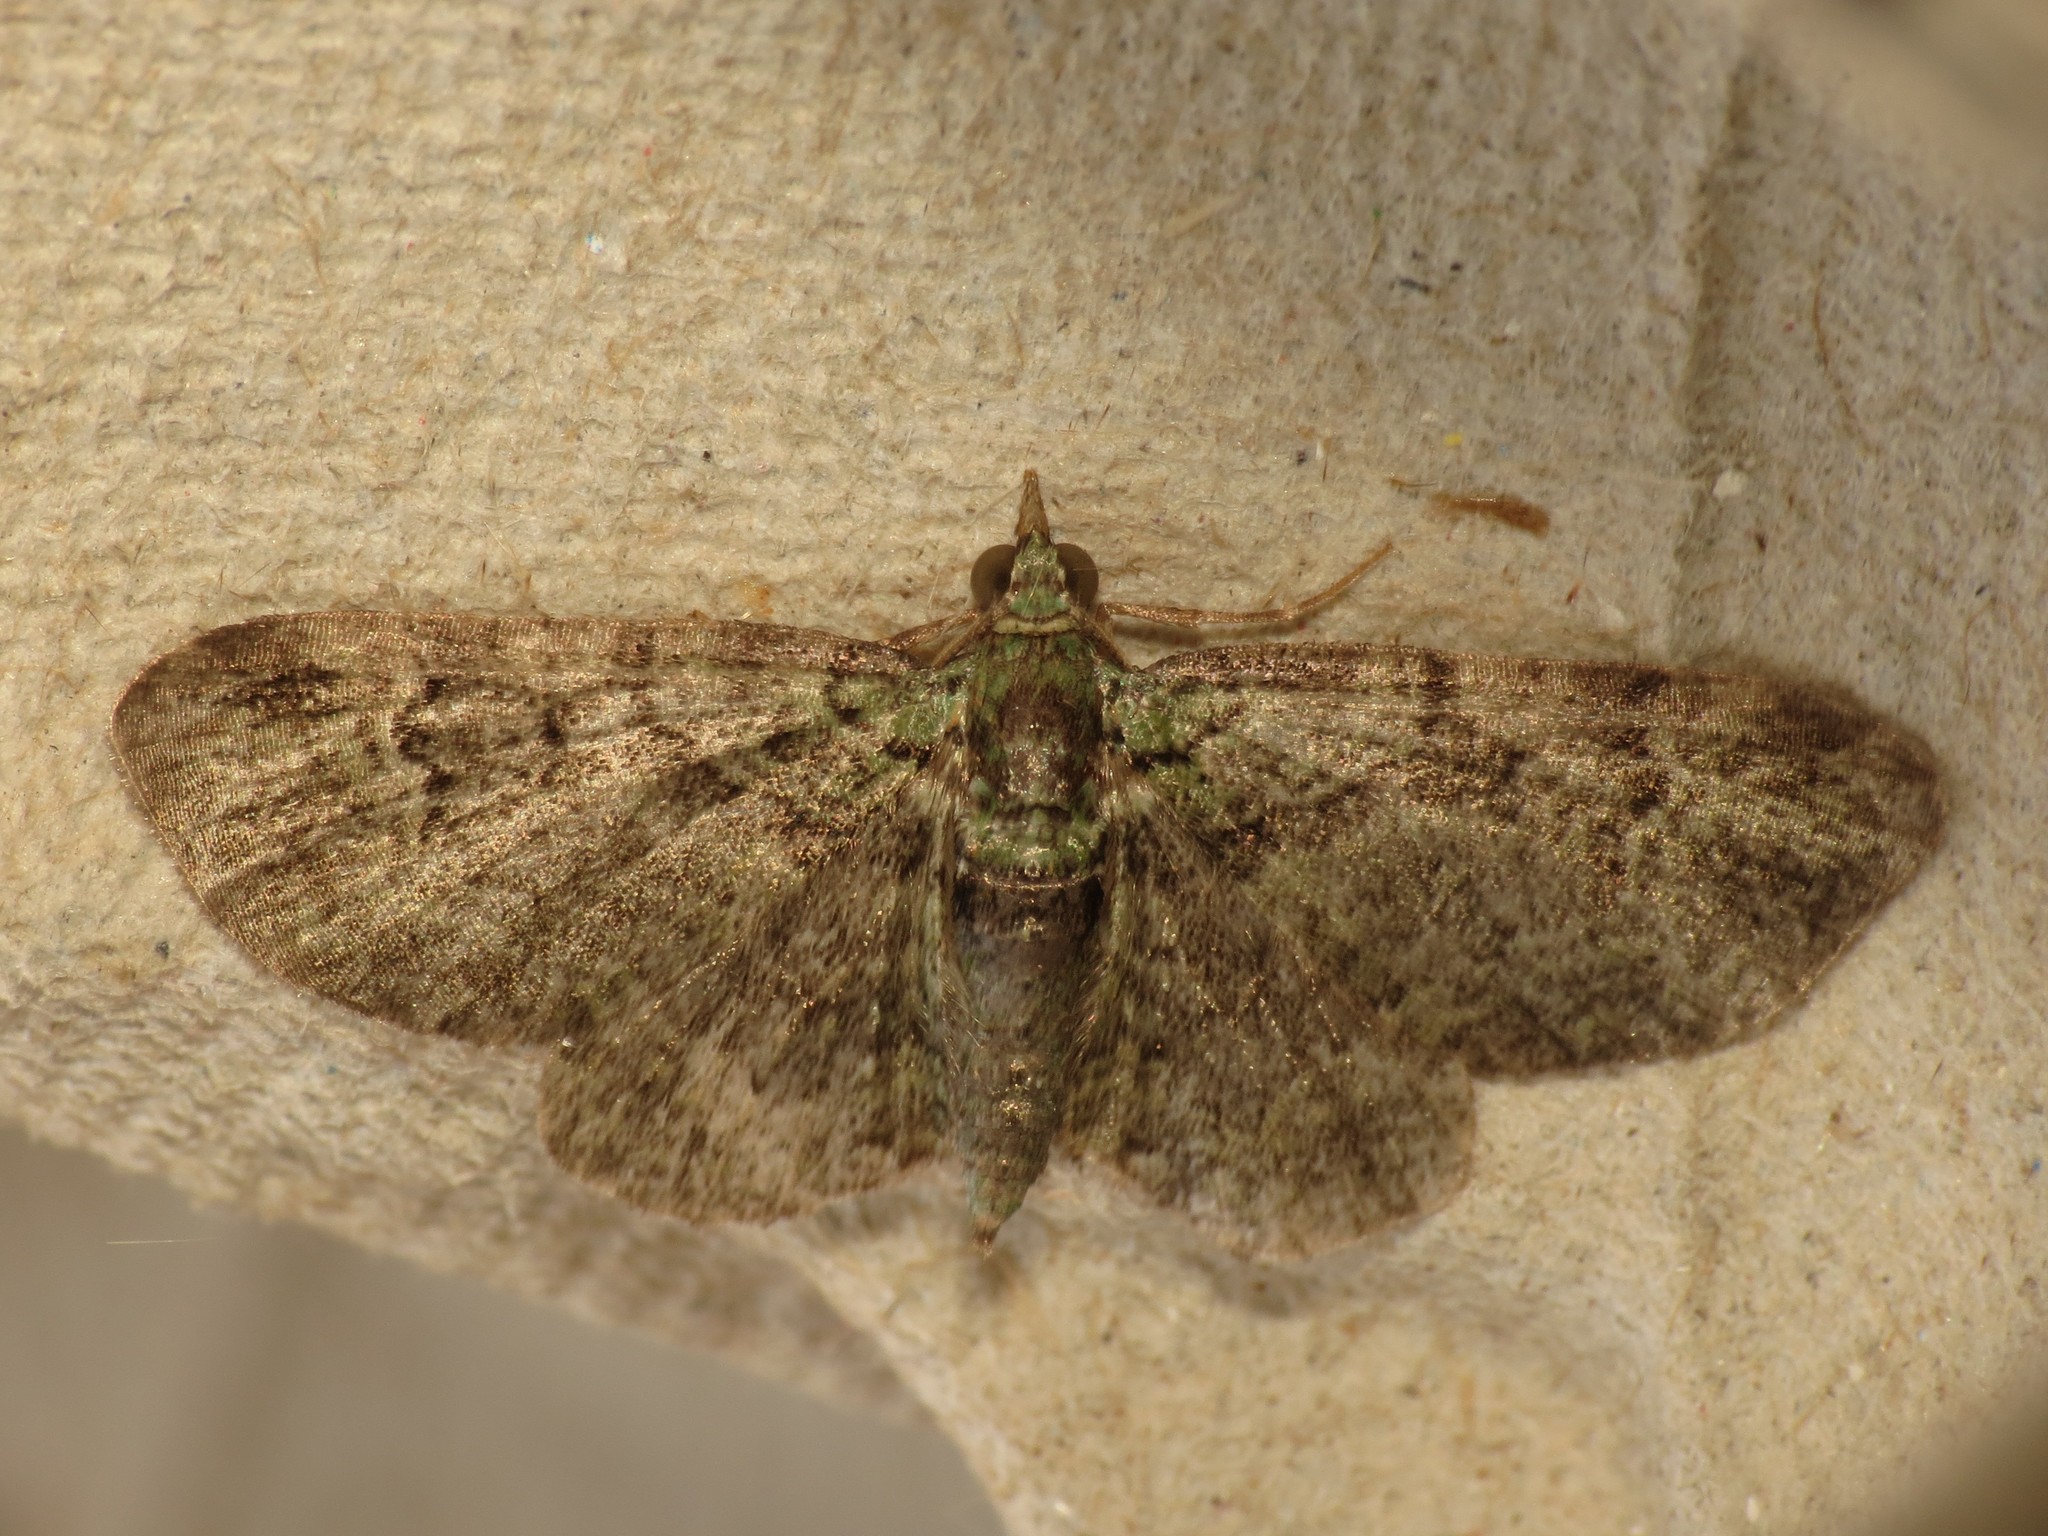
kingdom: Animalia
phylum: Arthropoda
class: Insecta
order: Lepidoptera
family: Geometridae
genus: Pasiphila
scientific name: Pasiphila rectangulata
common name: Green pug
